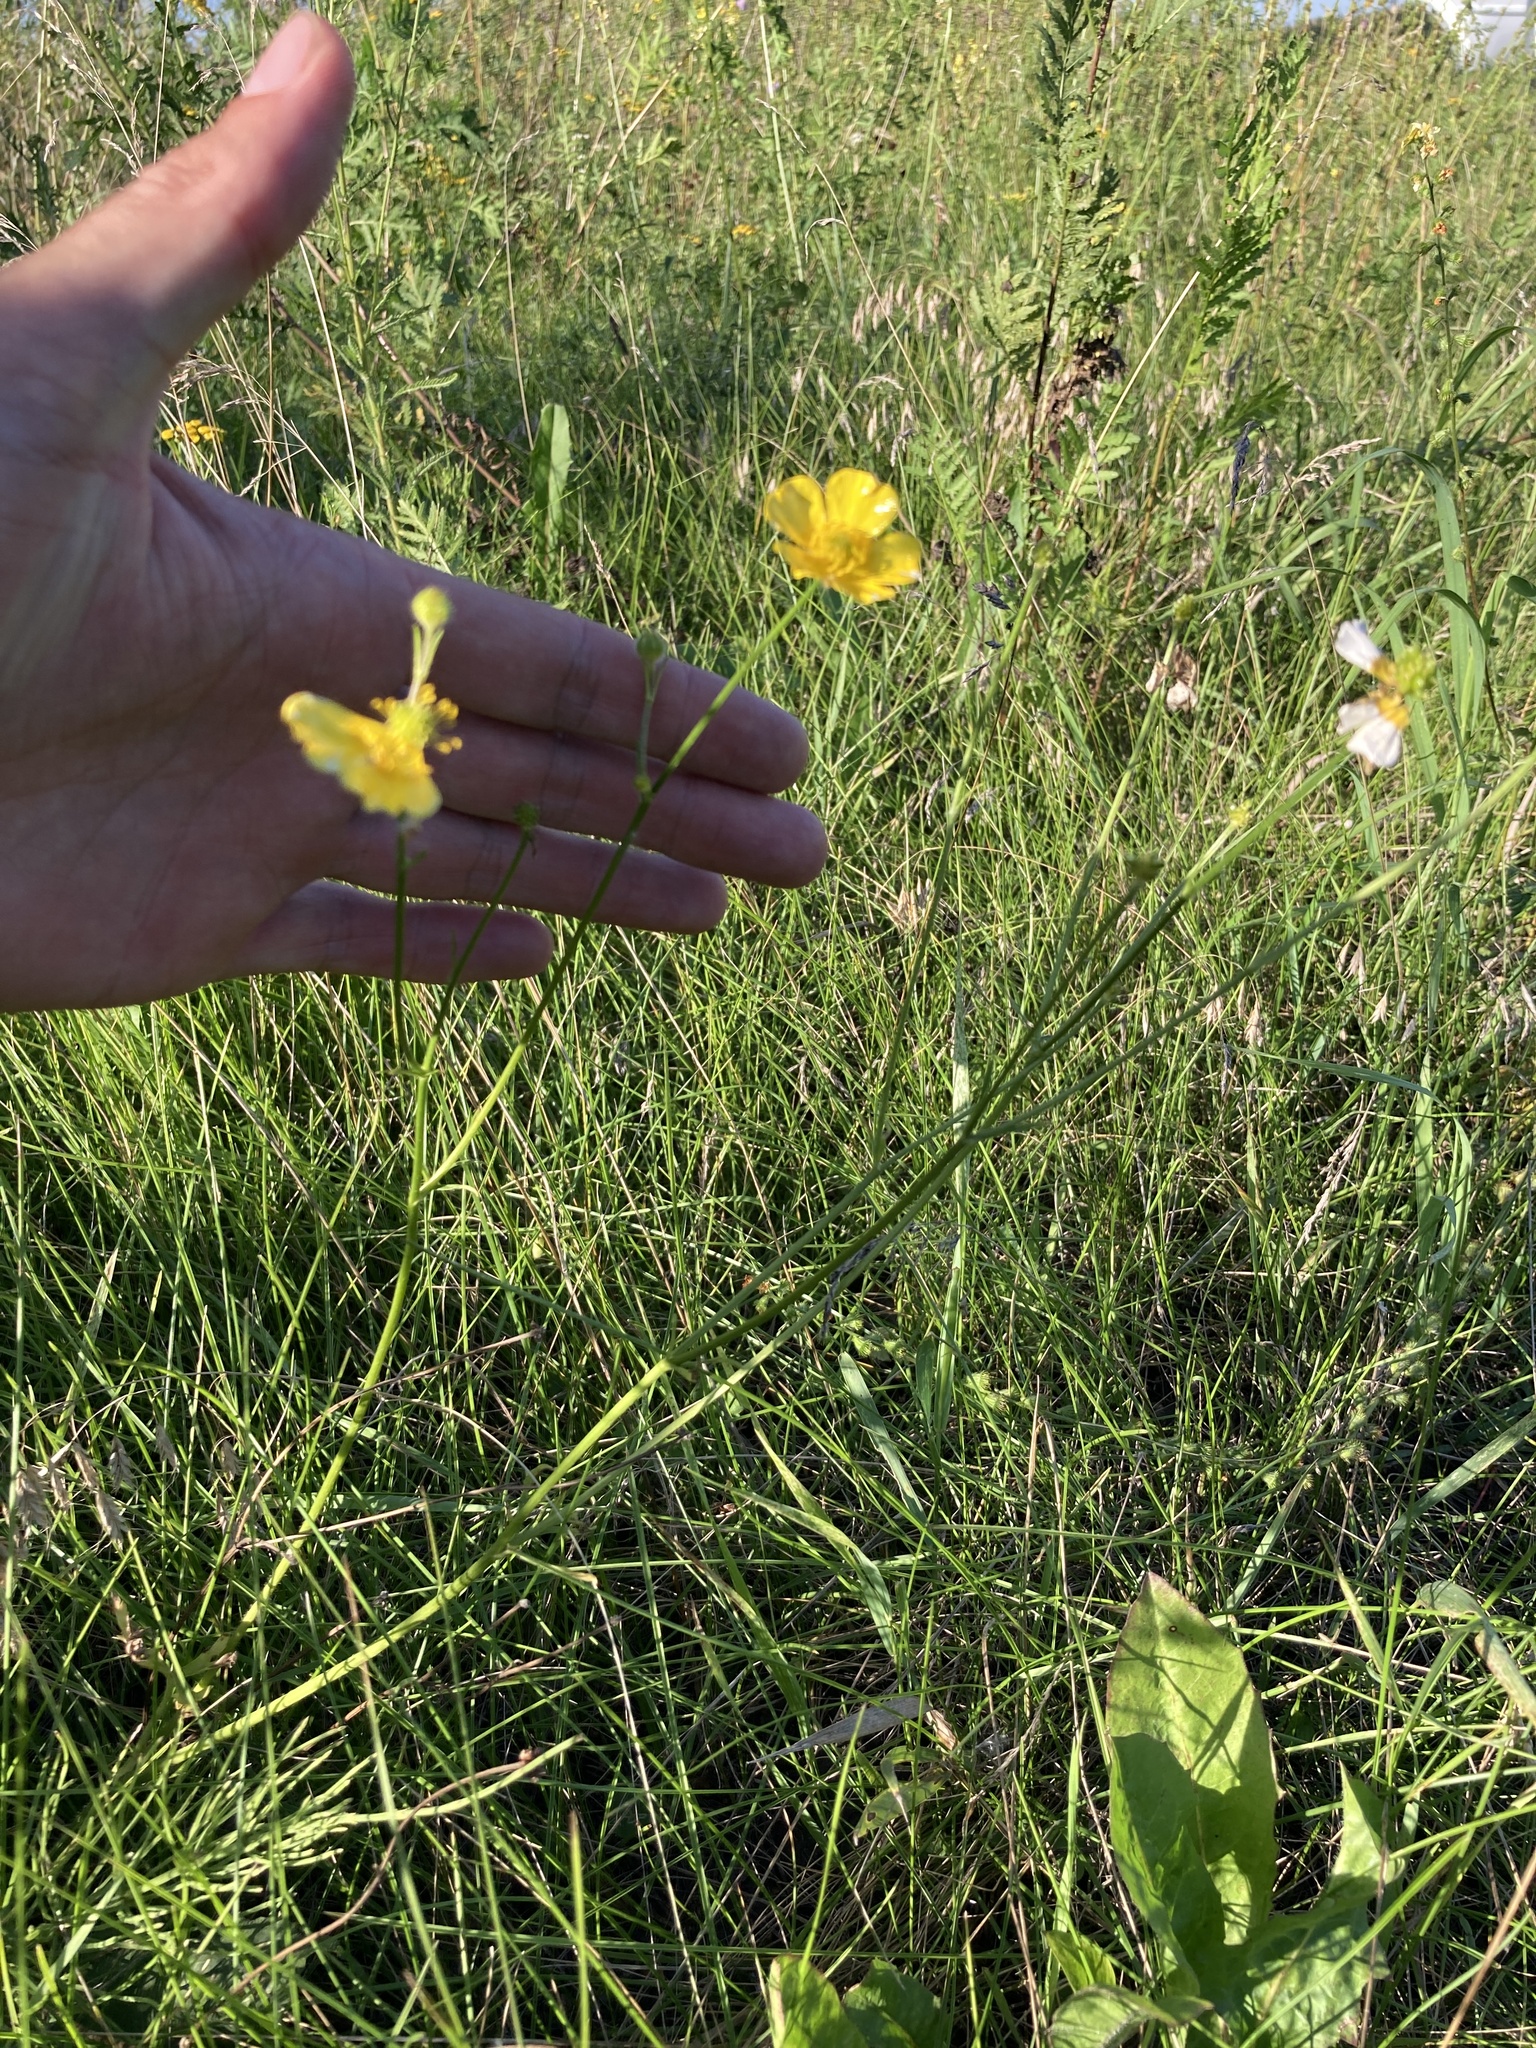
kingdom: Plantae
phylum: Tracheophyta
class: Magnoliopsida
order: Ranunculales
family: Ranunculaceae
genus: Ranunculus
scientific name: Ranunculus polyanthemos
